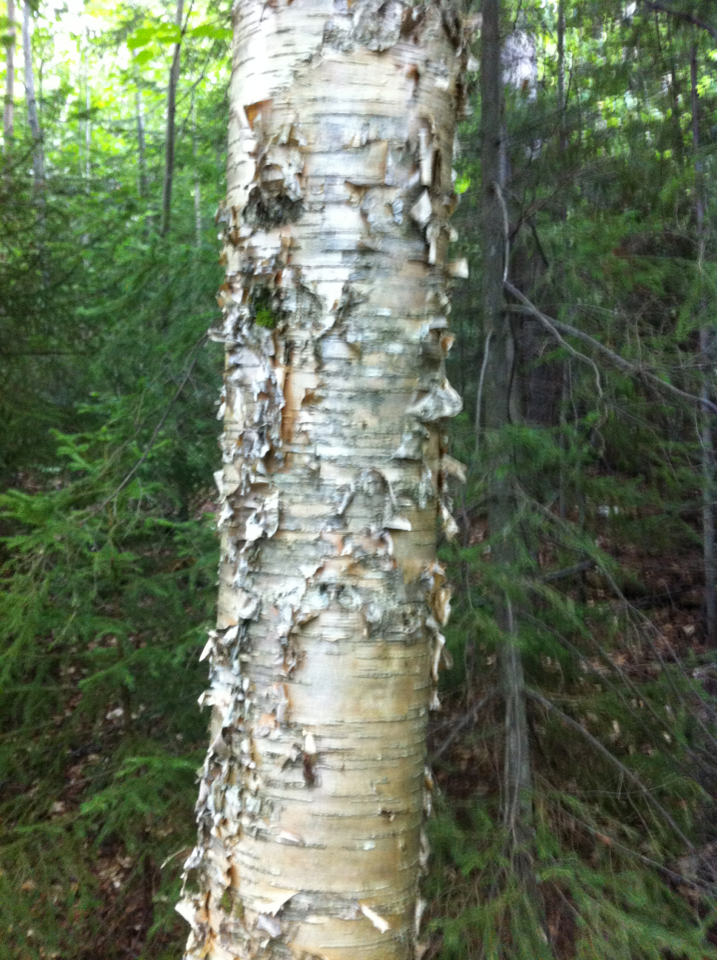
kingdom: Plantae
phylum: Tracheophyta
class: Magnoliopsida
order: Fagales
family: Betulaceae
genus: Betula
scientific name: Betula alleghaniensis
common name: Yellow birch
